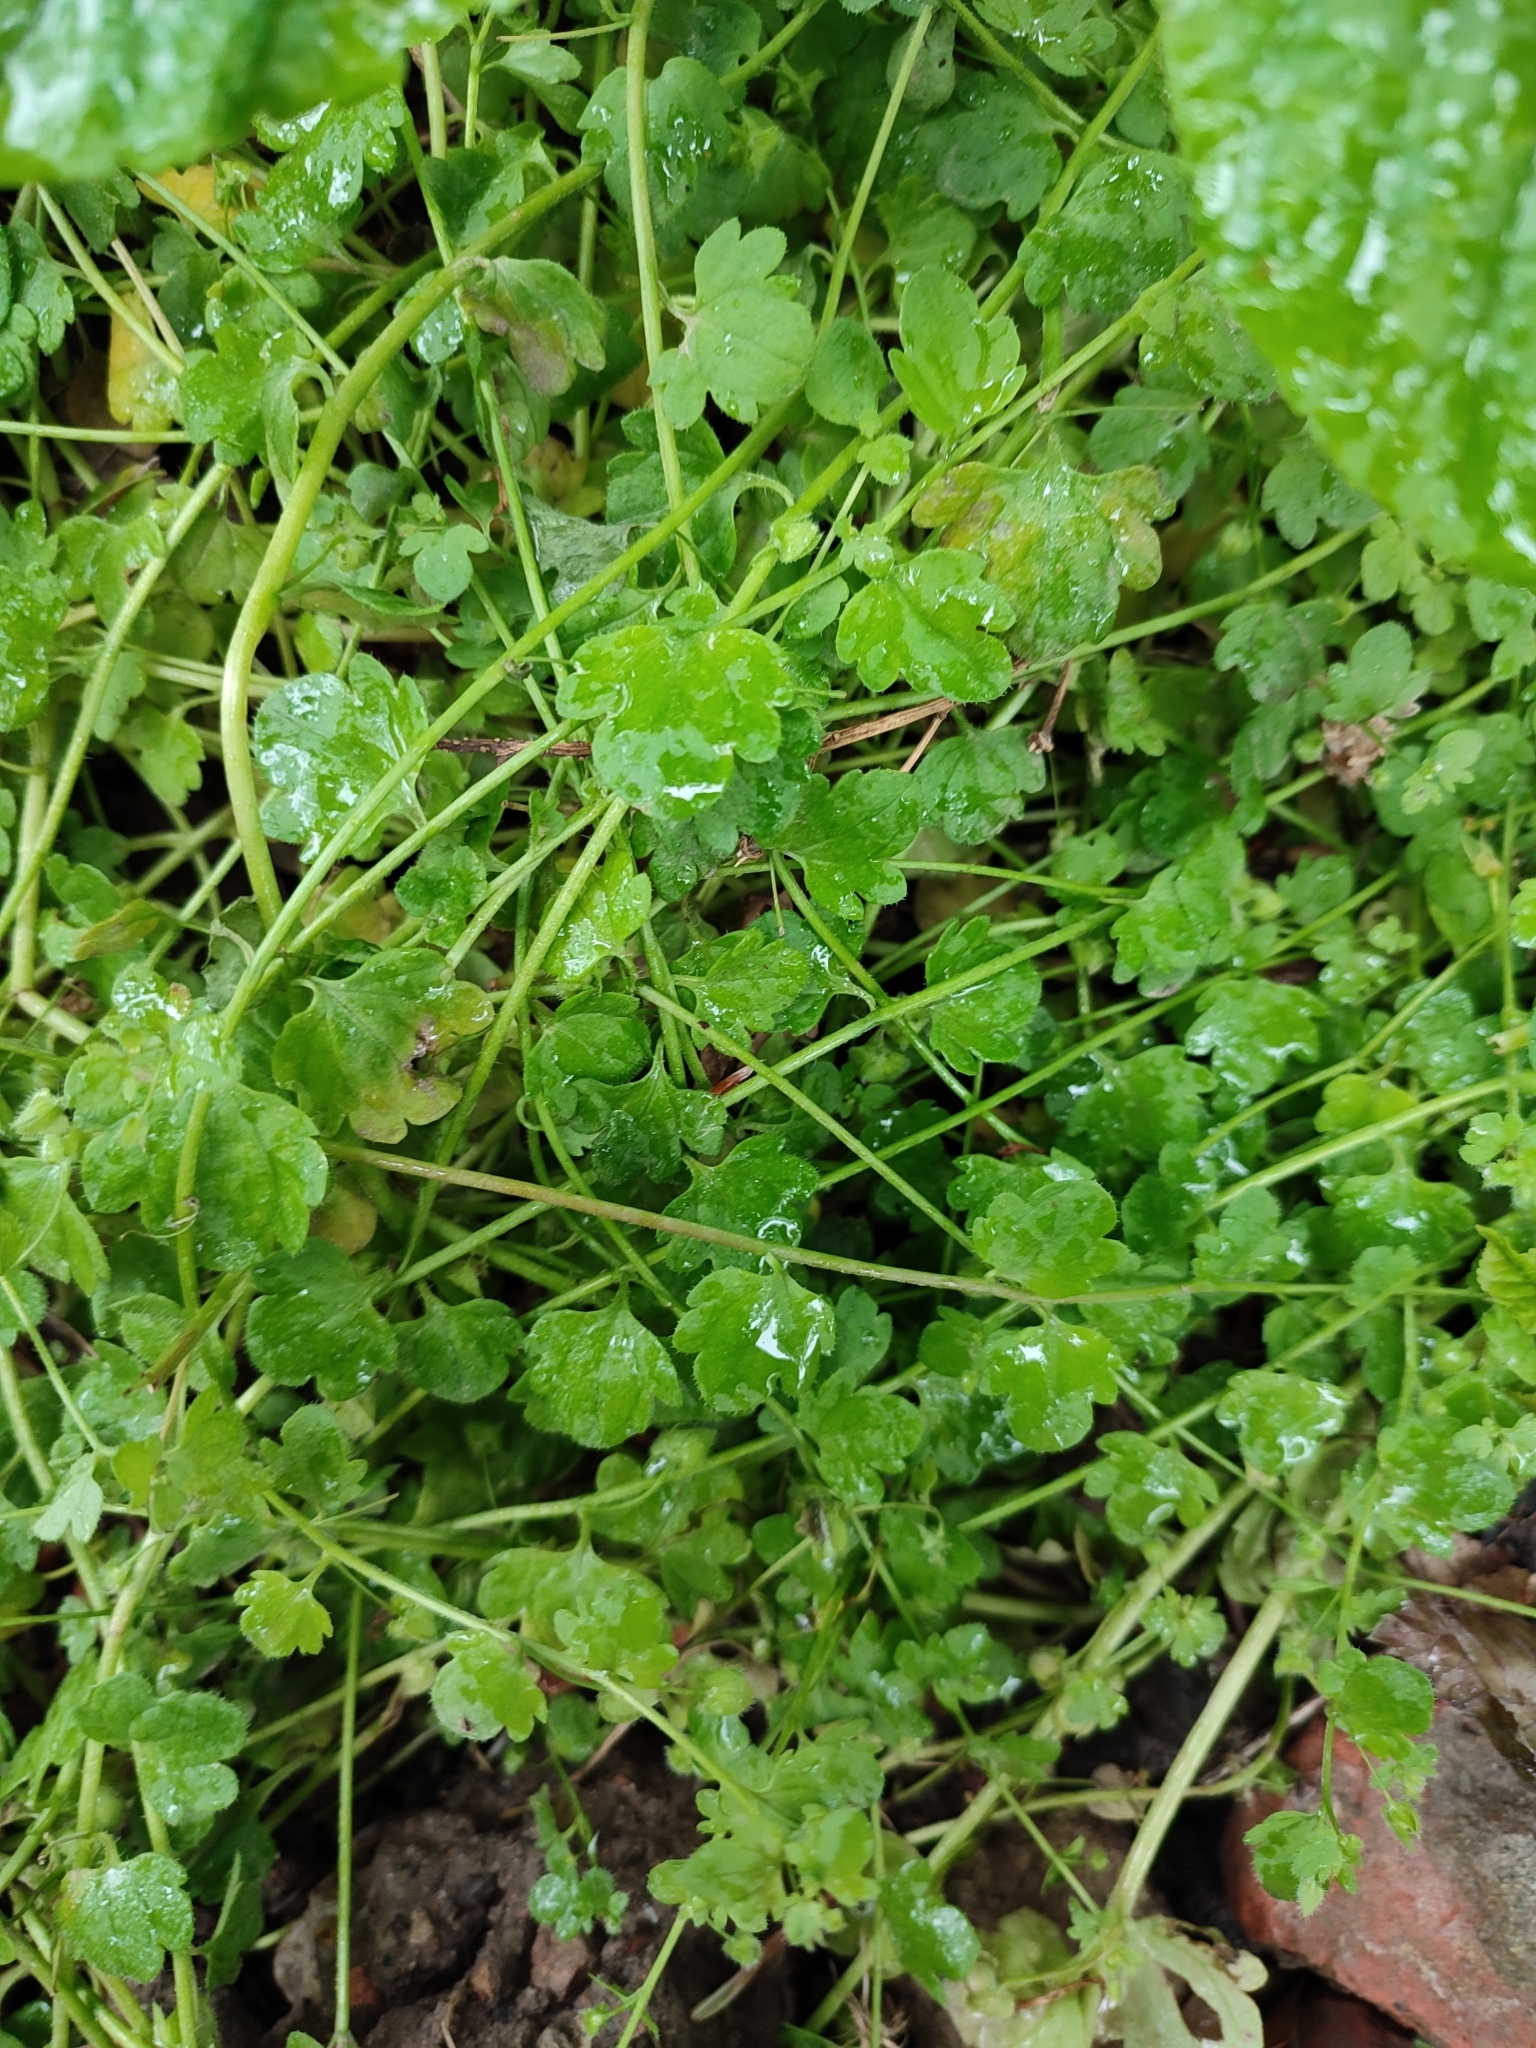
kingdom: Plantae
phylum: Tracheophyta
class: Magnoliopsida
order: Lamiales
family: Plantaginaceae
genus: Veronica
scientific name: Veronica hederifolia
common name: Ivy-leaved speedwell
